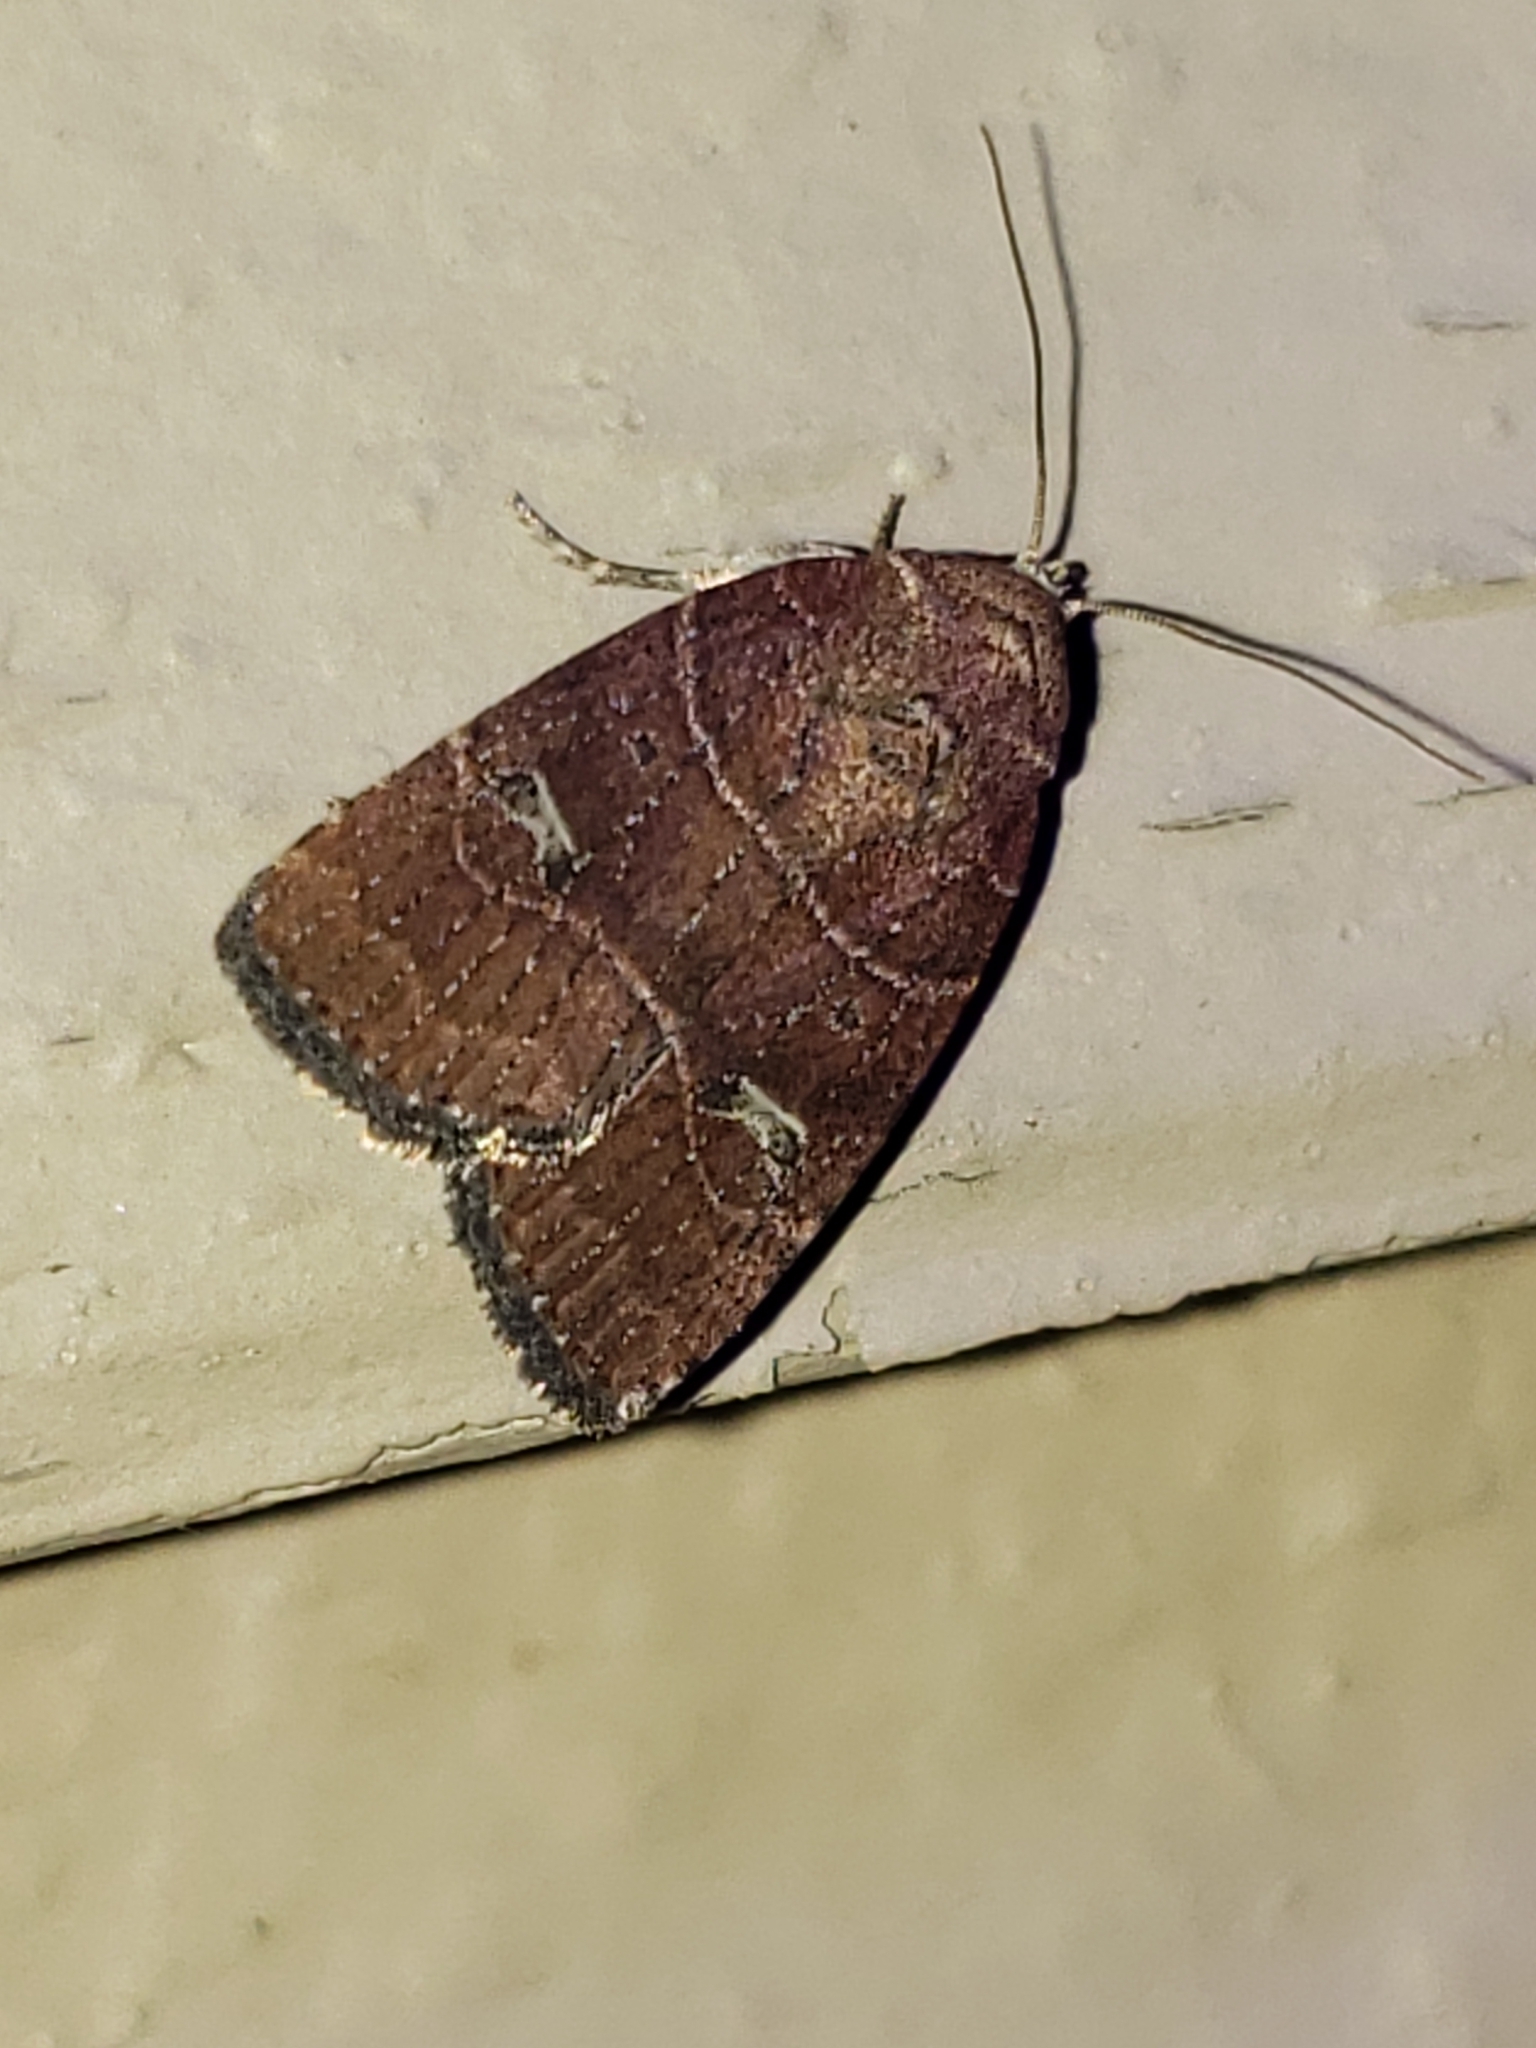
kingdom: Animalia
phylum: Arthropoda
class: Insecta
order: Lepidoptera
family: Noctuidae
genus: Elaphria
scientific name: Elaphria grata
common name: Grateful midget moth
